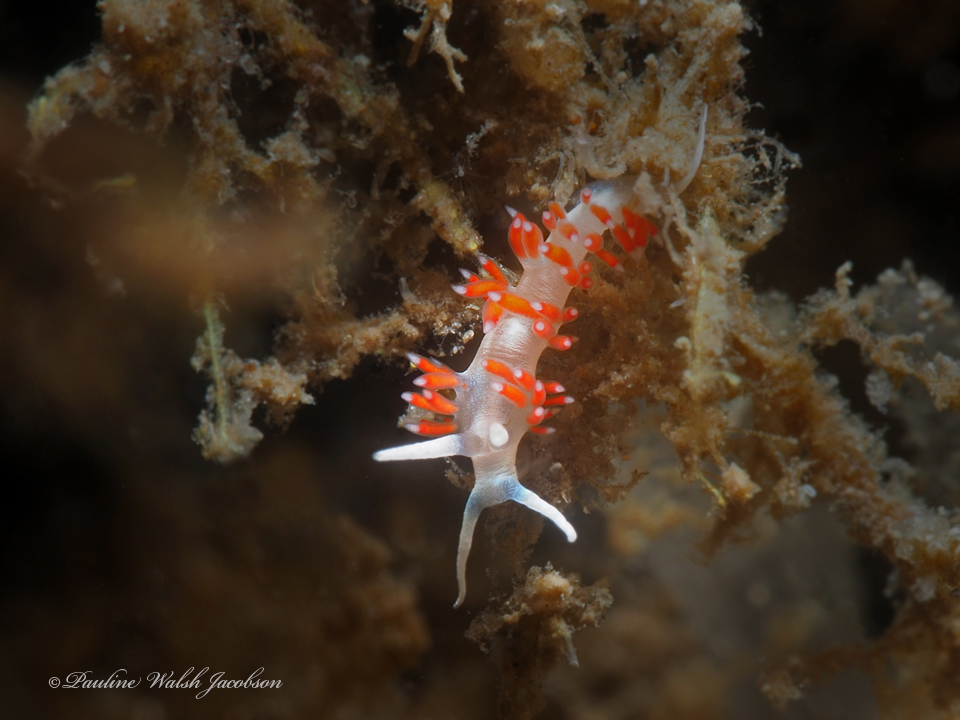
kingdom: Animalia
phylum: Mollusca
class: Gastropoda
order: Nudibranchia
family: Flabellinidae
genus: Flabellina
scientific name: Flabellina dushia
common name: Dushia flabellina
